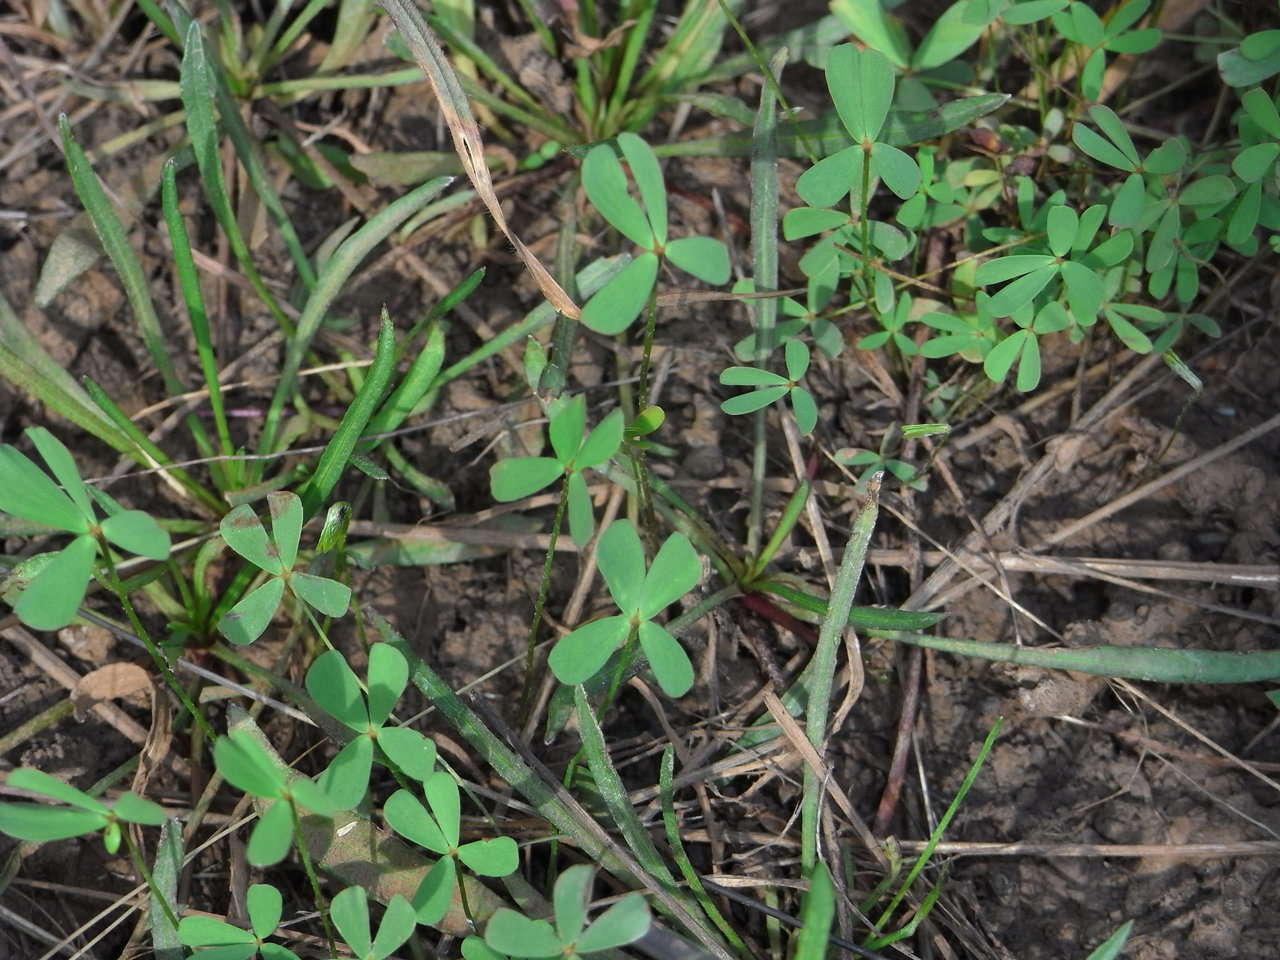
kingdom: Plantae
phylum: Tracheophyta
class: Polypodiopsida
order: Salviniales
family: Marsileaceae
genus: Marsilea
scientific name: Marsilea costulifera
